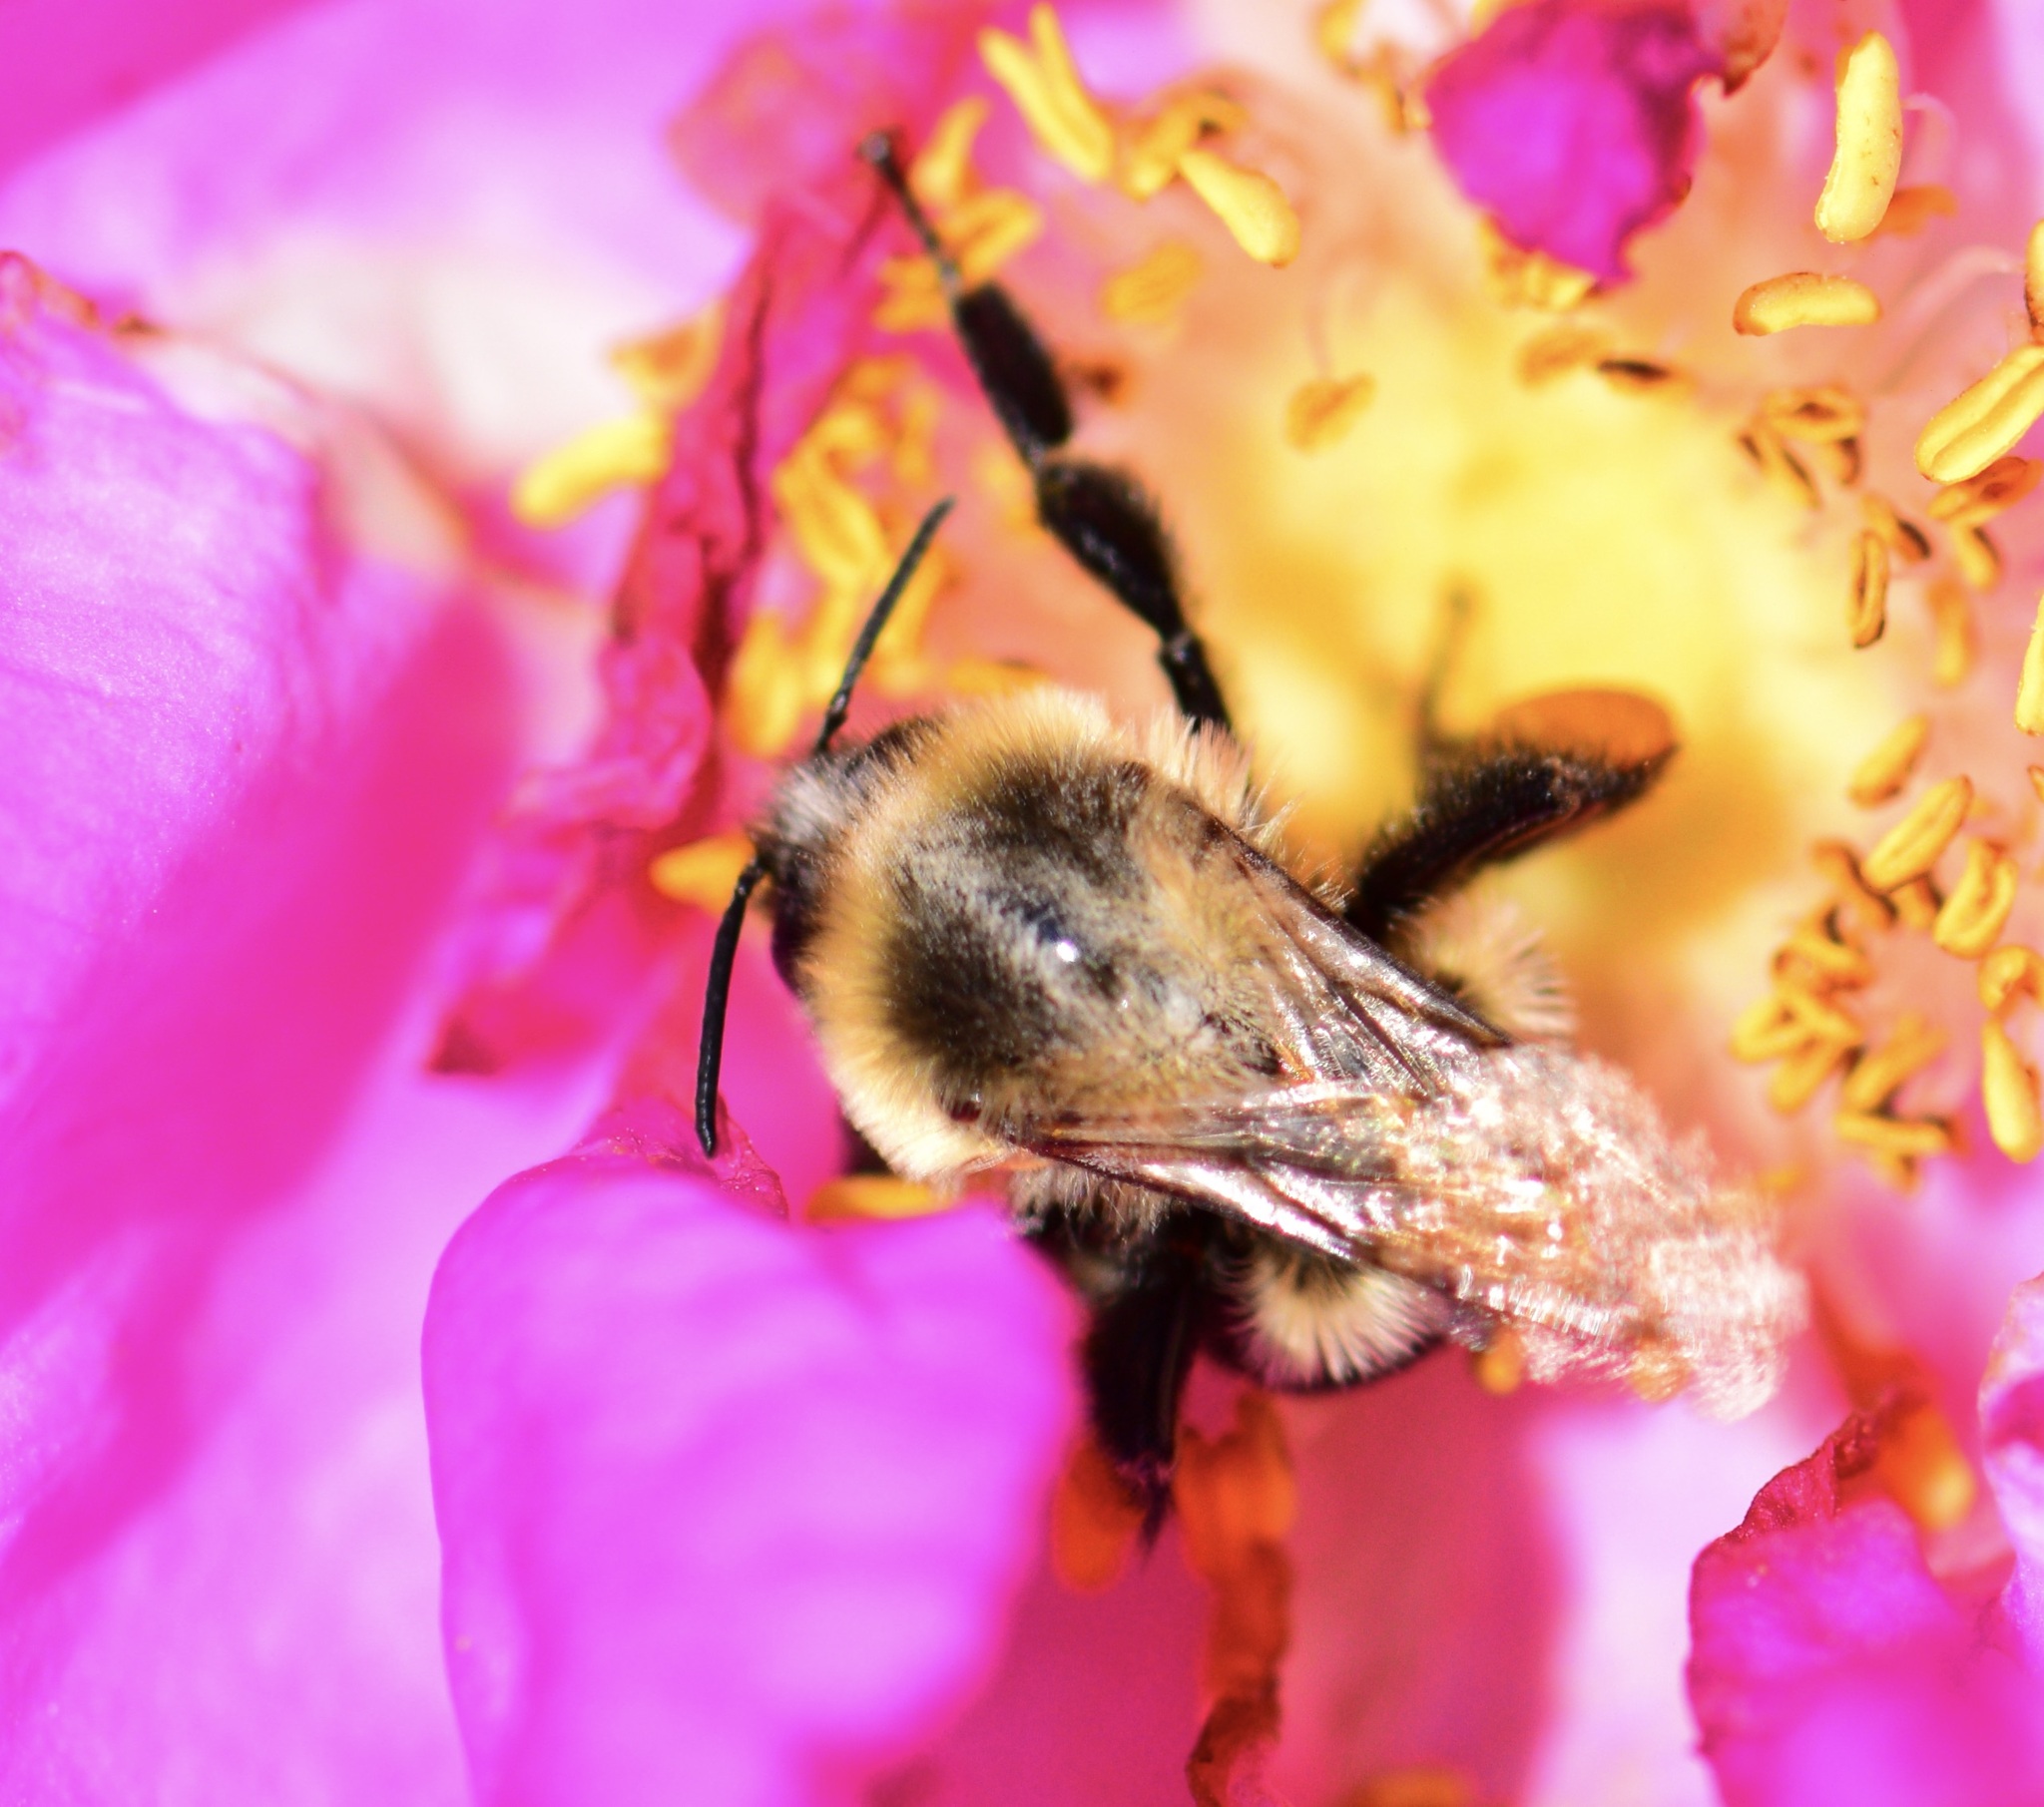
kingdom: Animalia
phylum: Arthropoda
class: Insecta
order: Hymenoptera
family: Apidae
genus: Bombus
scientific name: Bombus impatiens
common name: Common eastern bumble bee
